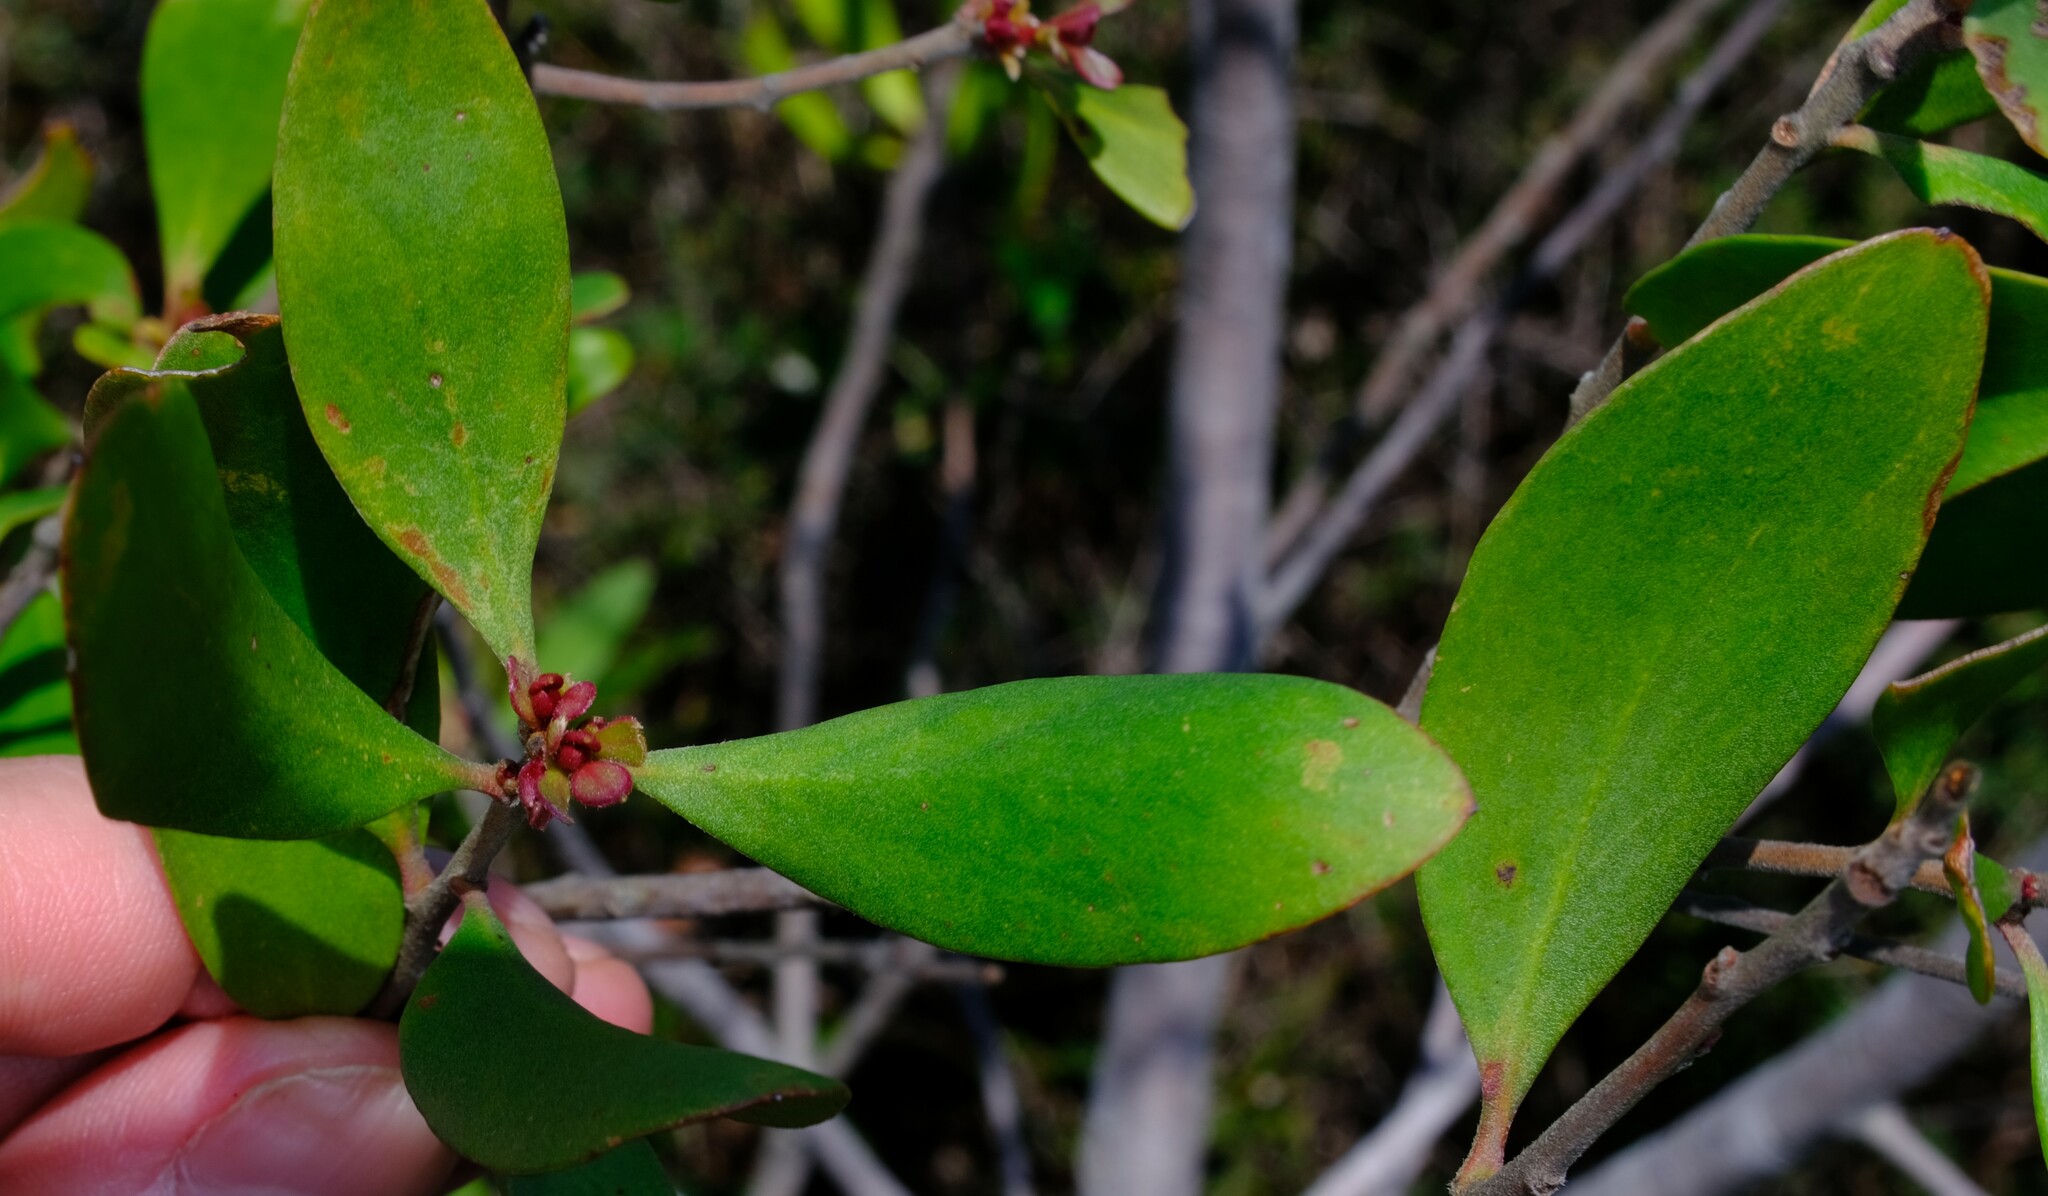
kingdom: Plantae
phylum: Tracheophyta
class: Magnoliopsida
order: Proteales
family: Proteaceae
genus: Persoonia
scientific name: Persoonia stradbrokensis
